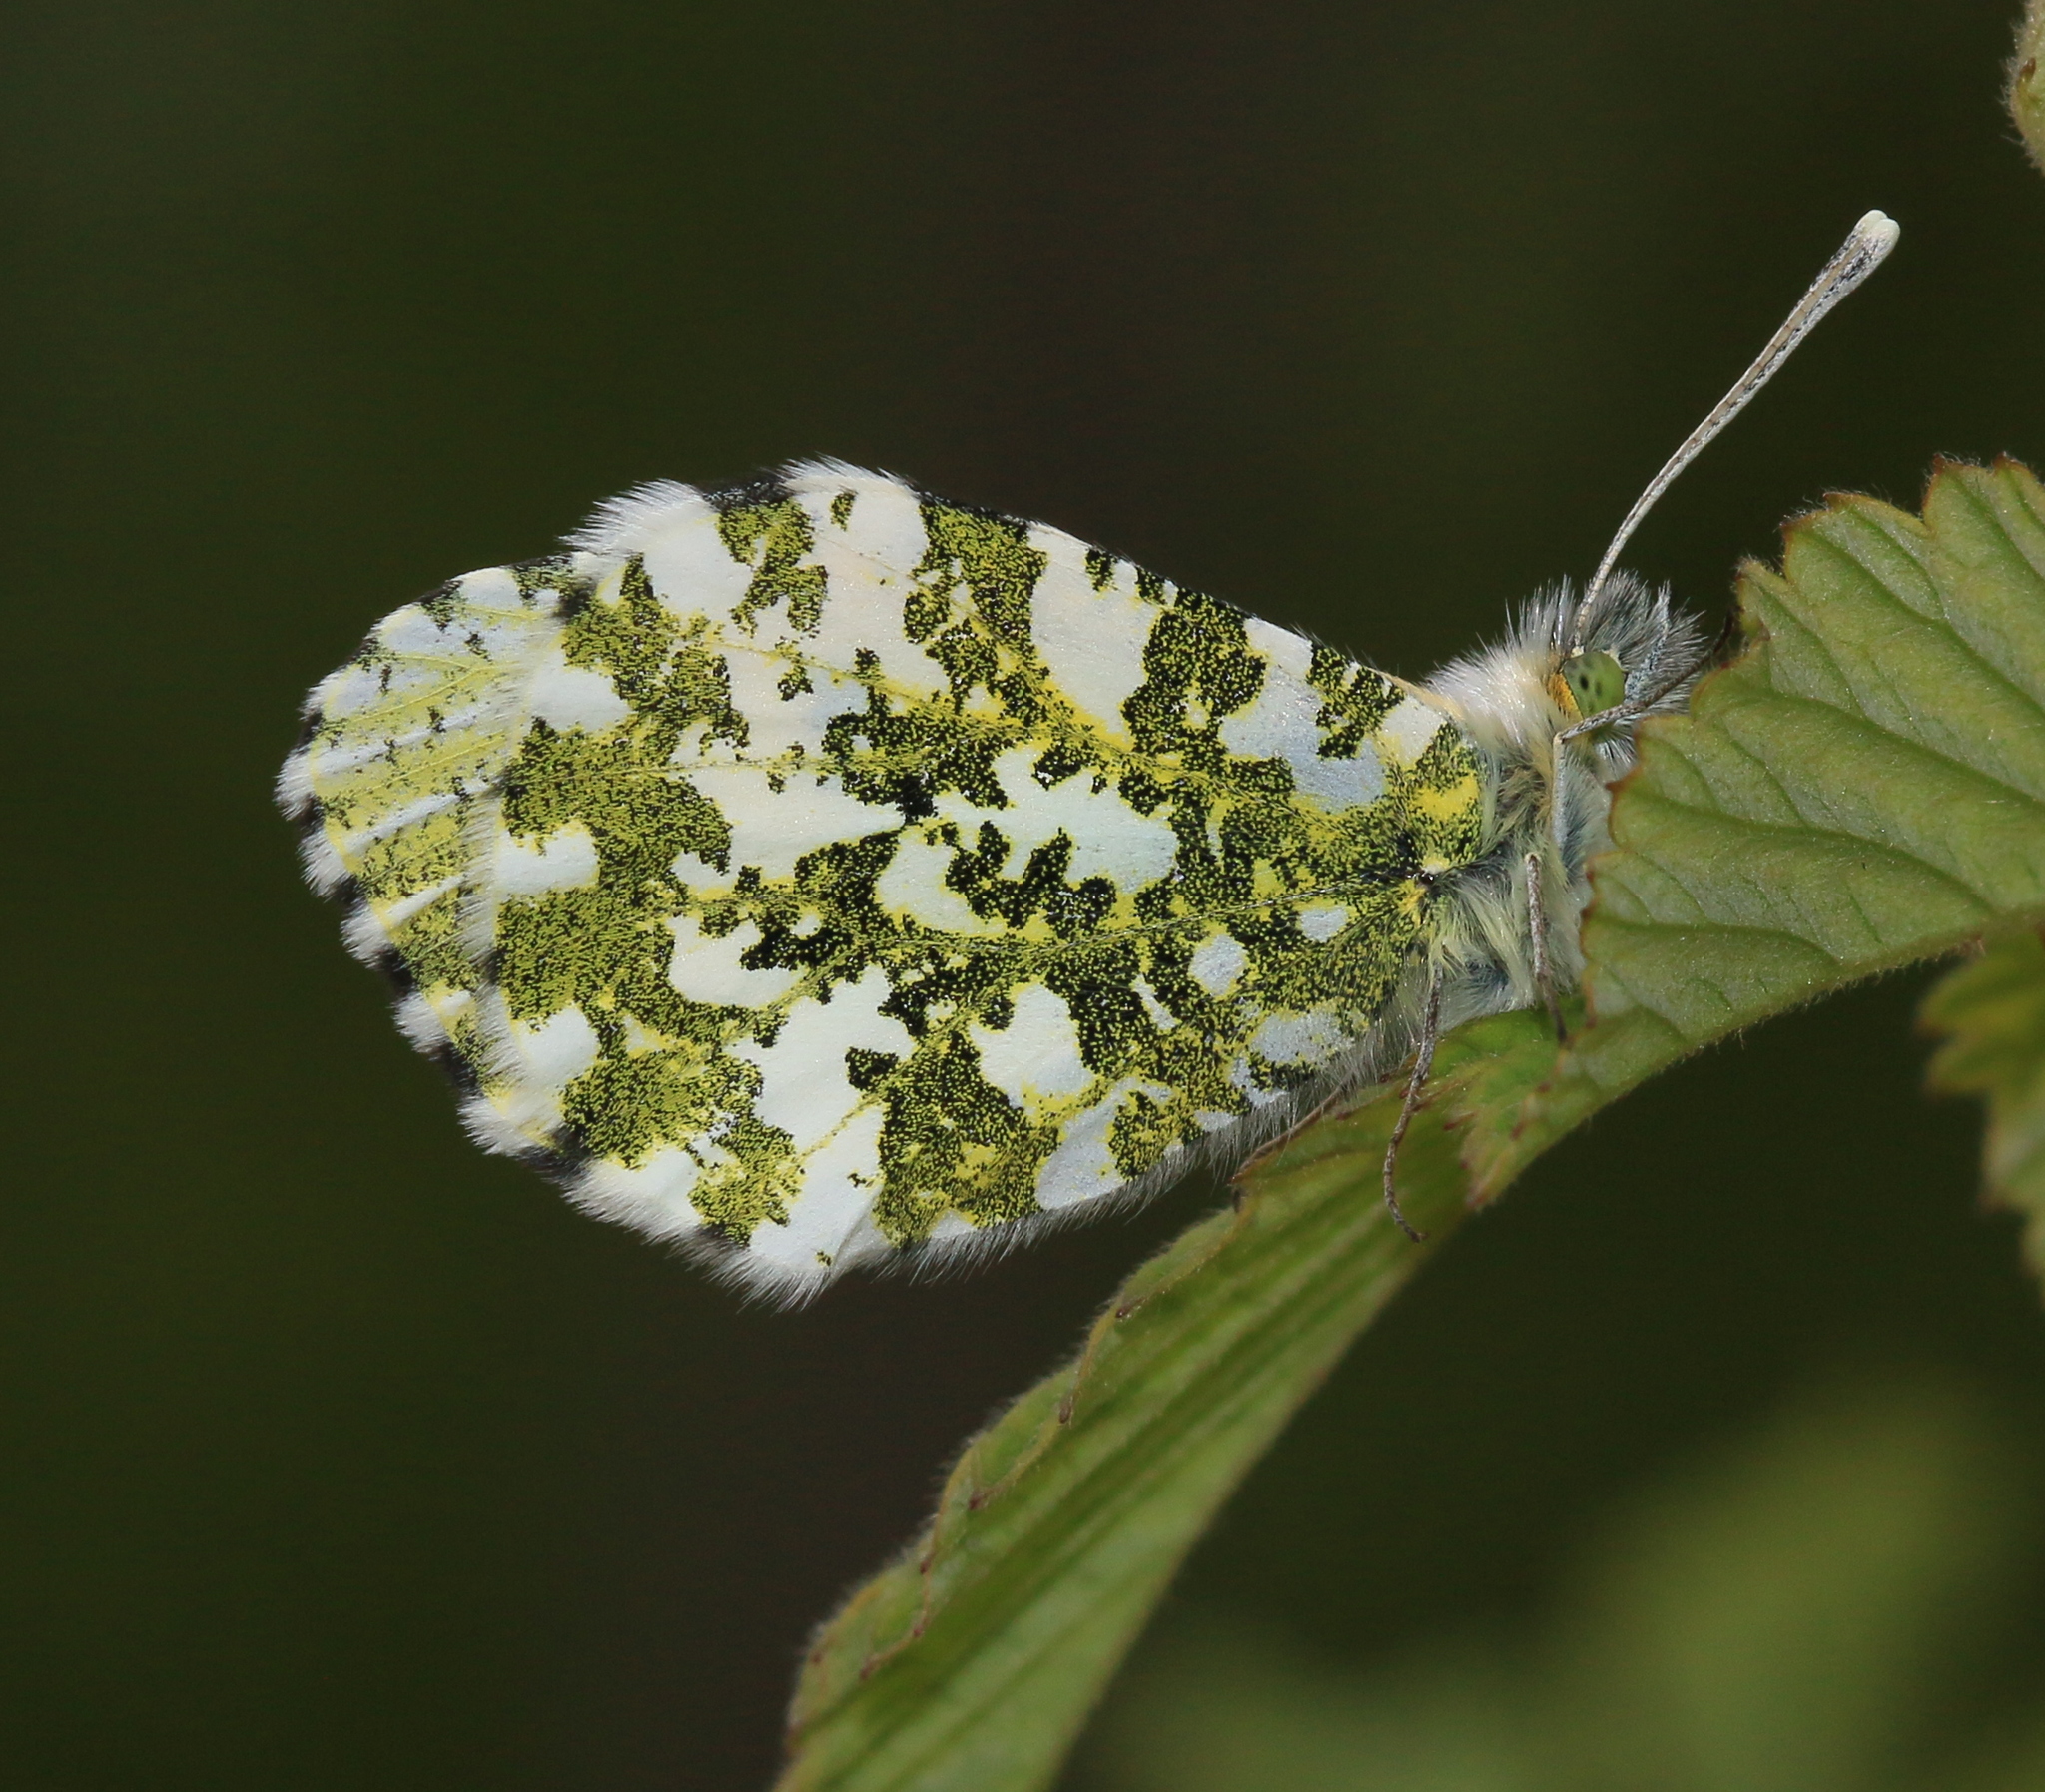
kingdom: Animalia
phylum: Arthropoda
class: Insecta
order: Lepidoptera
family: Pieridae
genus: Anthocharis
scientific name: Anthocharis cardamines
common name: Orange-tip
